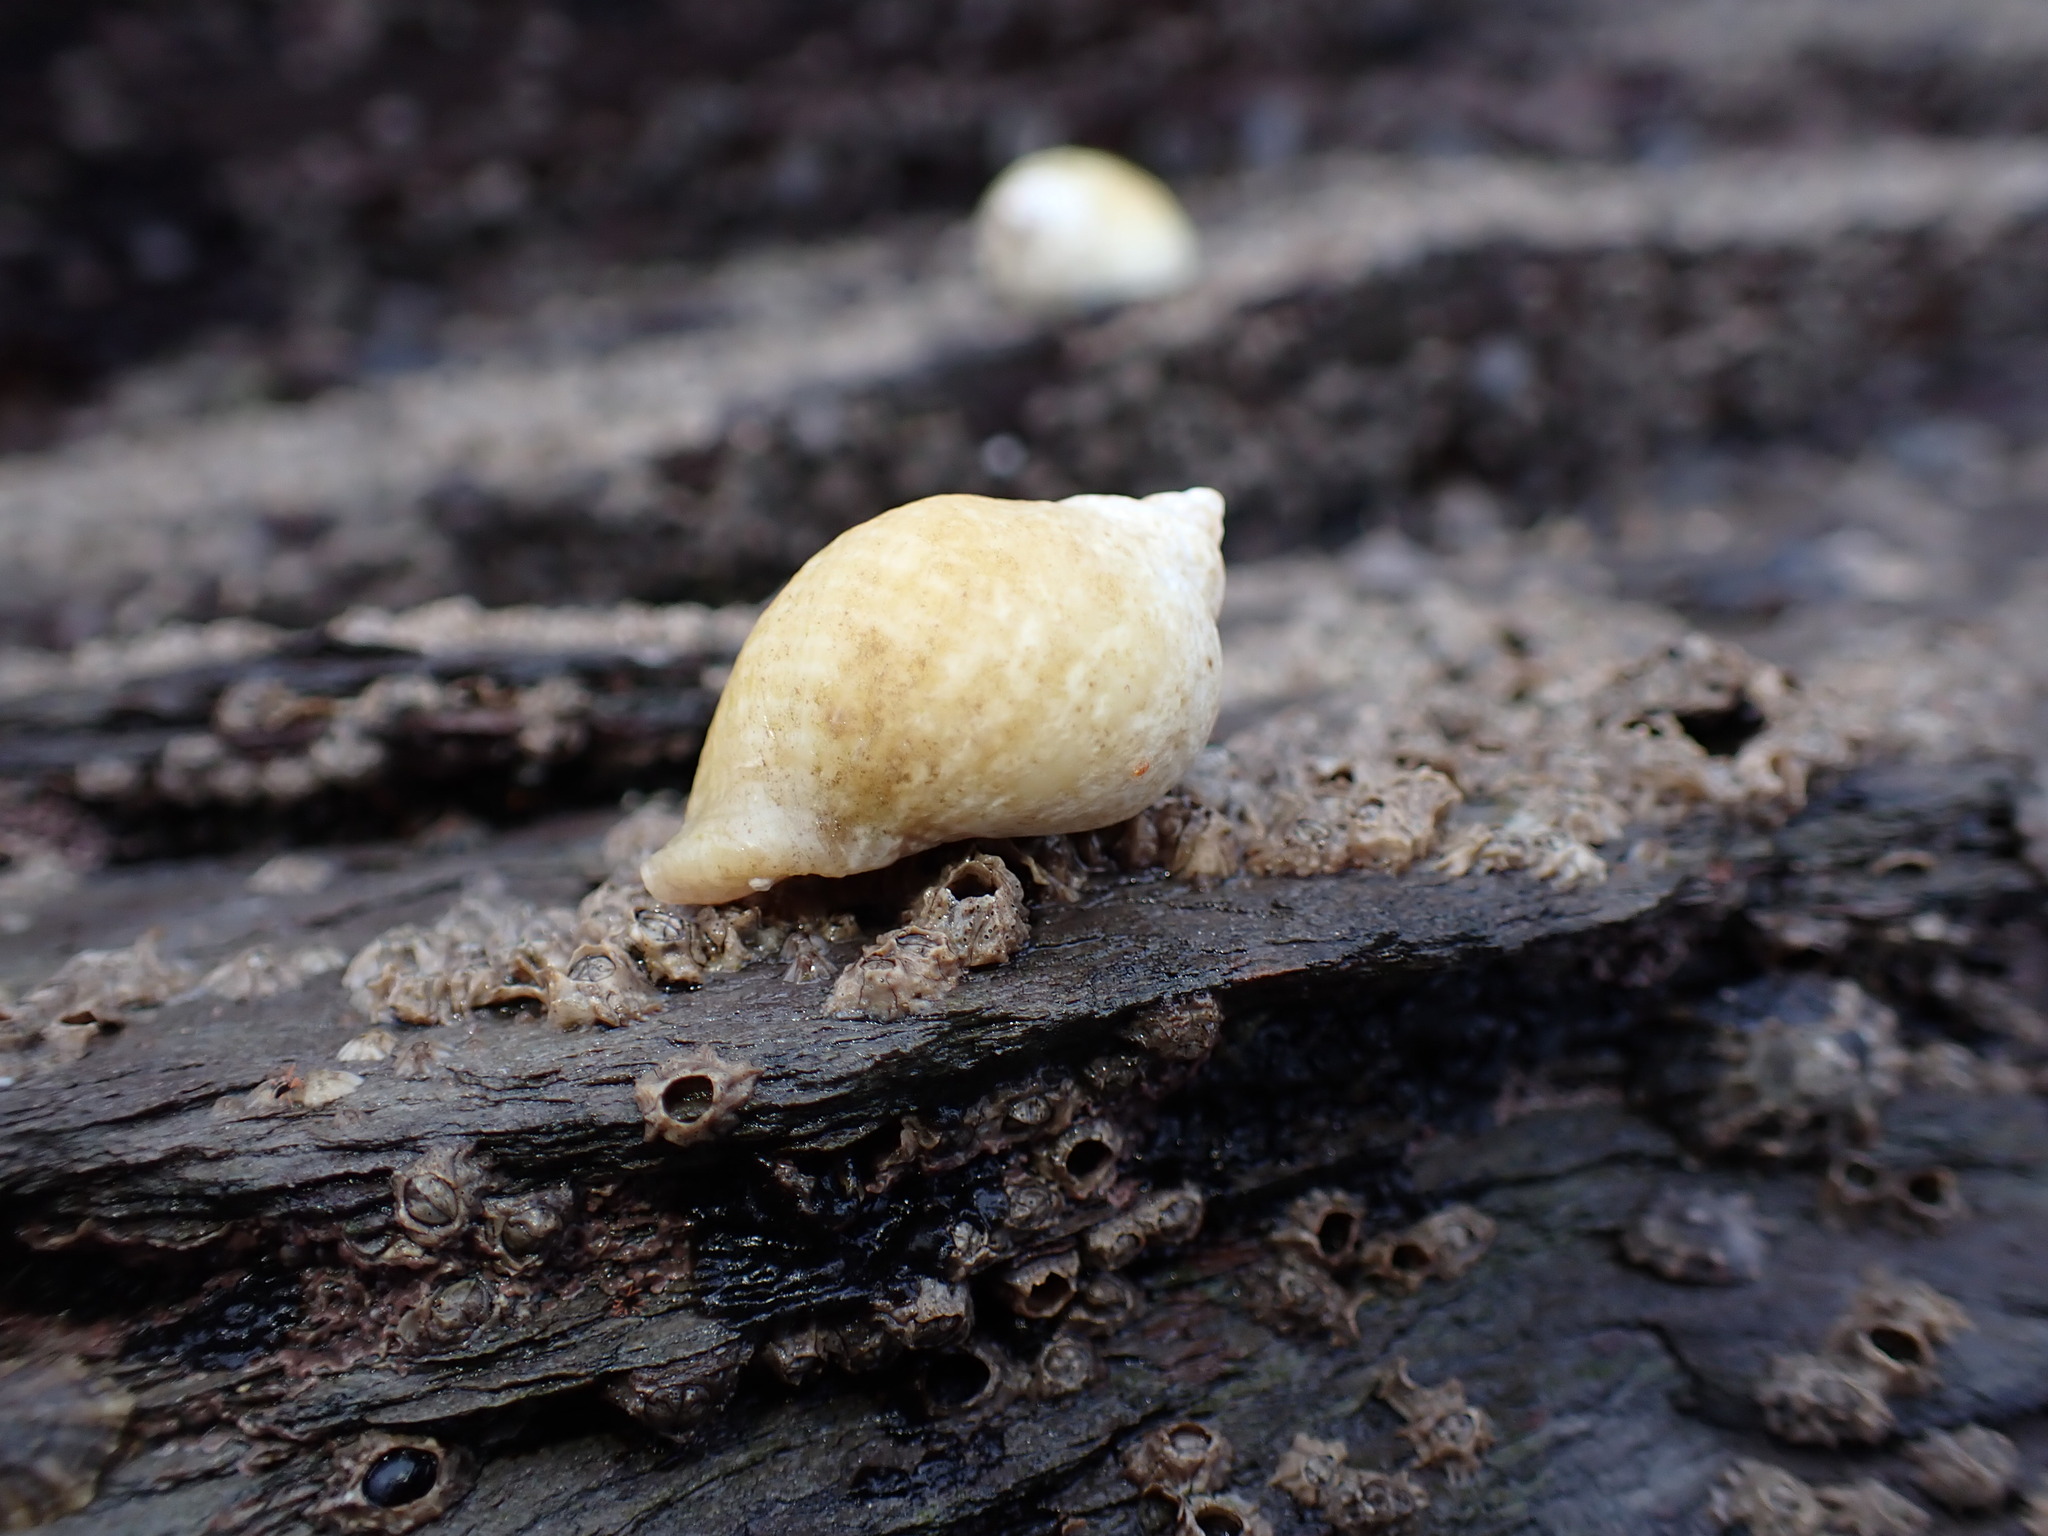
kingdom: Animalia
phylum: Mollusca
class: Gastropoda
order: Neogastropoda
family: Muricidae
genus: Nucella
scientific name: Nucella lapillus
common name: Dog whelk
